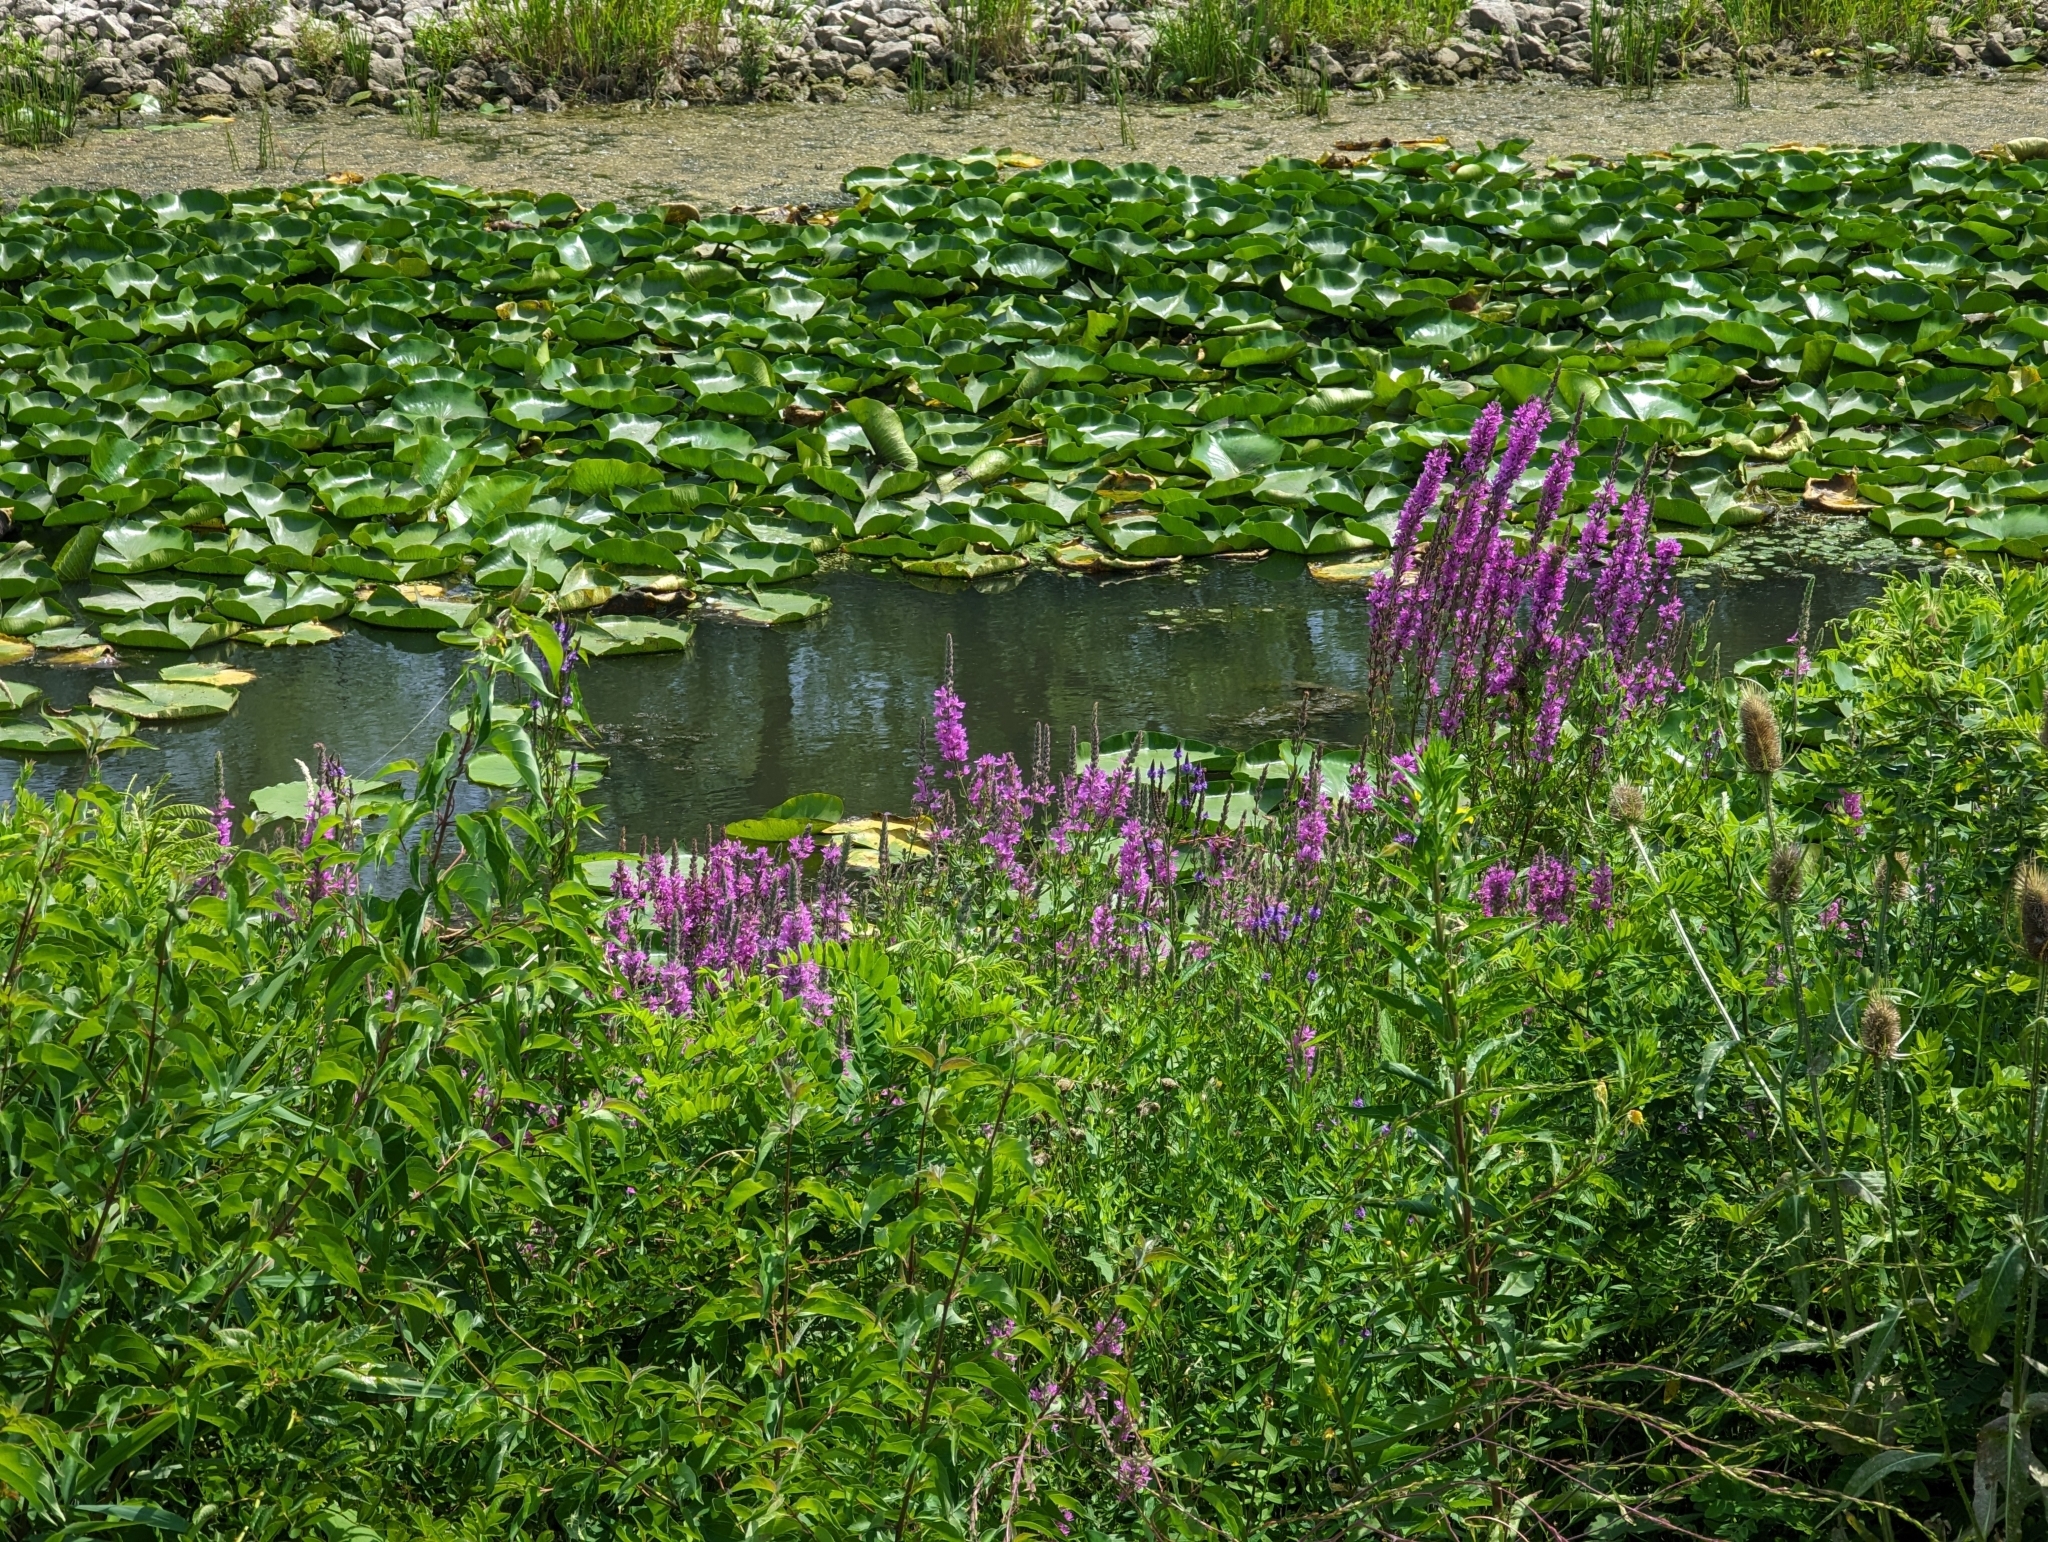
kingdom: Plantae
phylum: Tracheophyta
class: Magnoliopsida
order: Myrtales
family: Lythraceae
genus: Lythrum
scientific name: Lythrum salicaria
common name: Purple loosestrife
